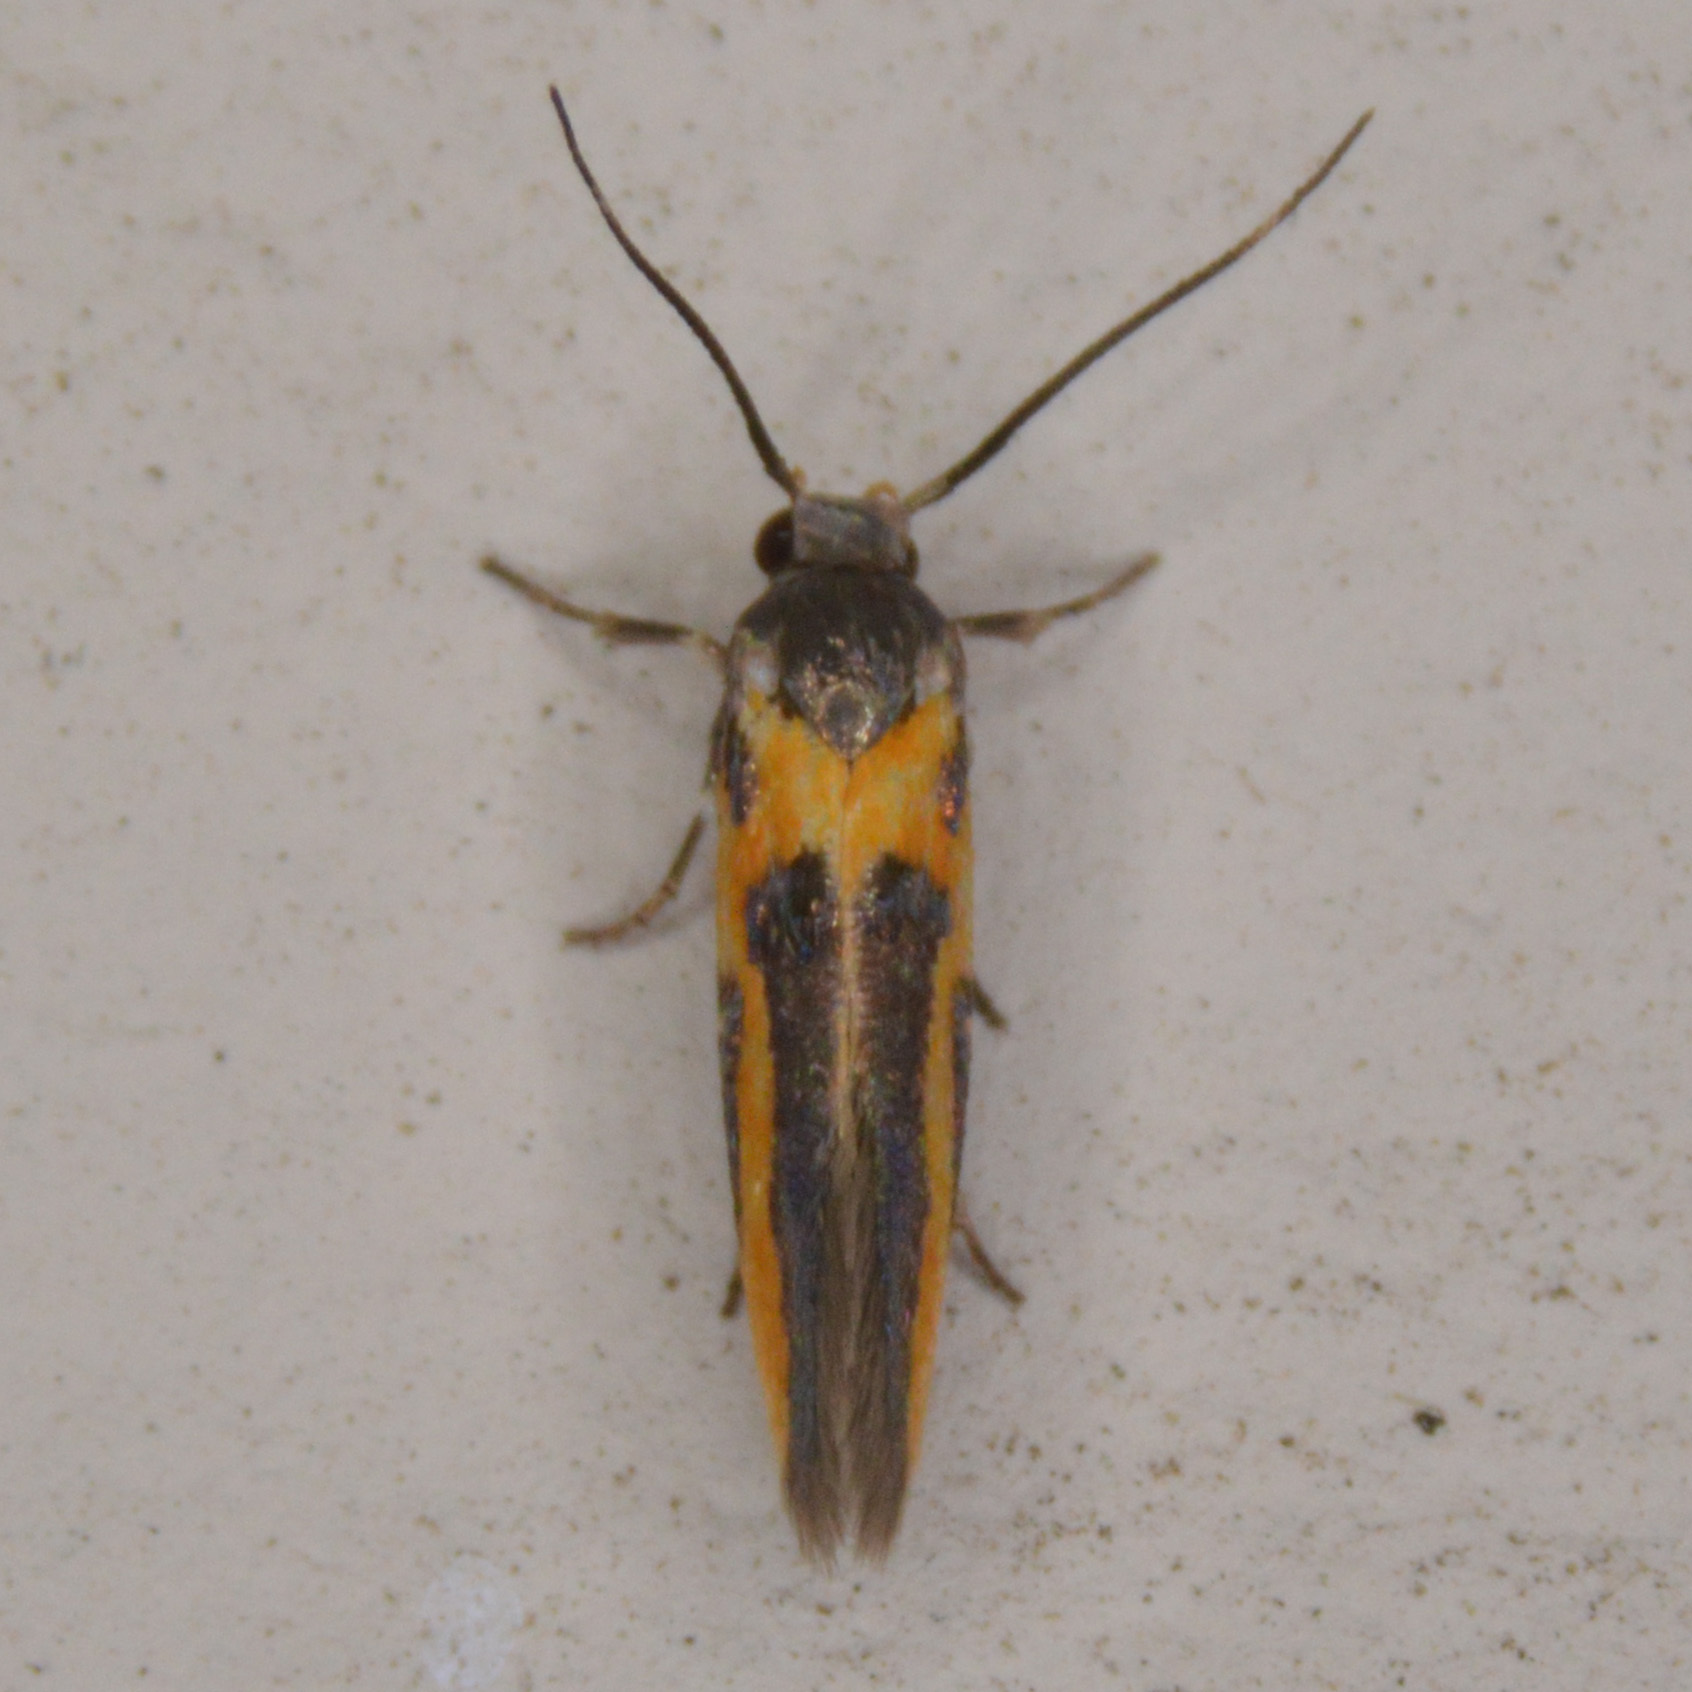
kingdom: Animalia
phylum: Arthropoda
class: Insecta
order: Lepidoptera
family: Cosmopterigidae
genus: Euclemensia
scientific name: Euclemensia bassettella
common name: Kermes scale moth
